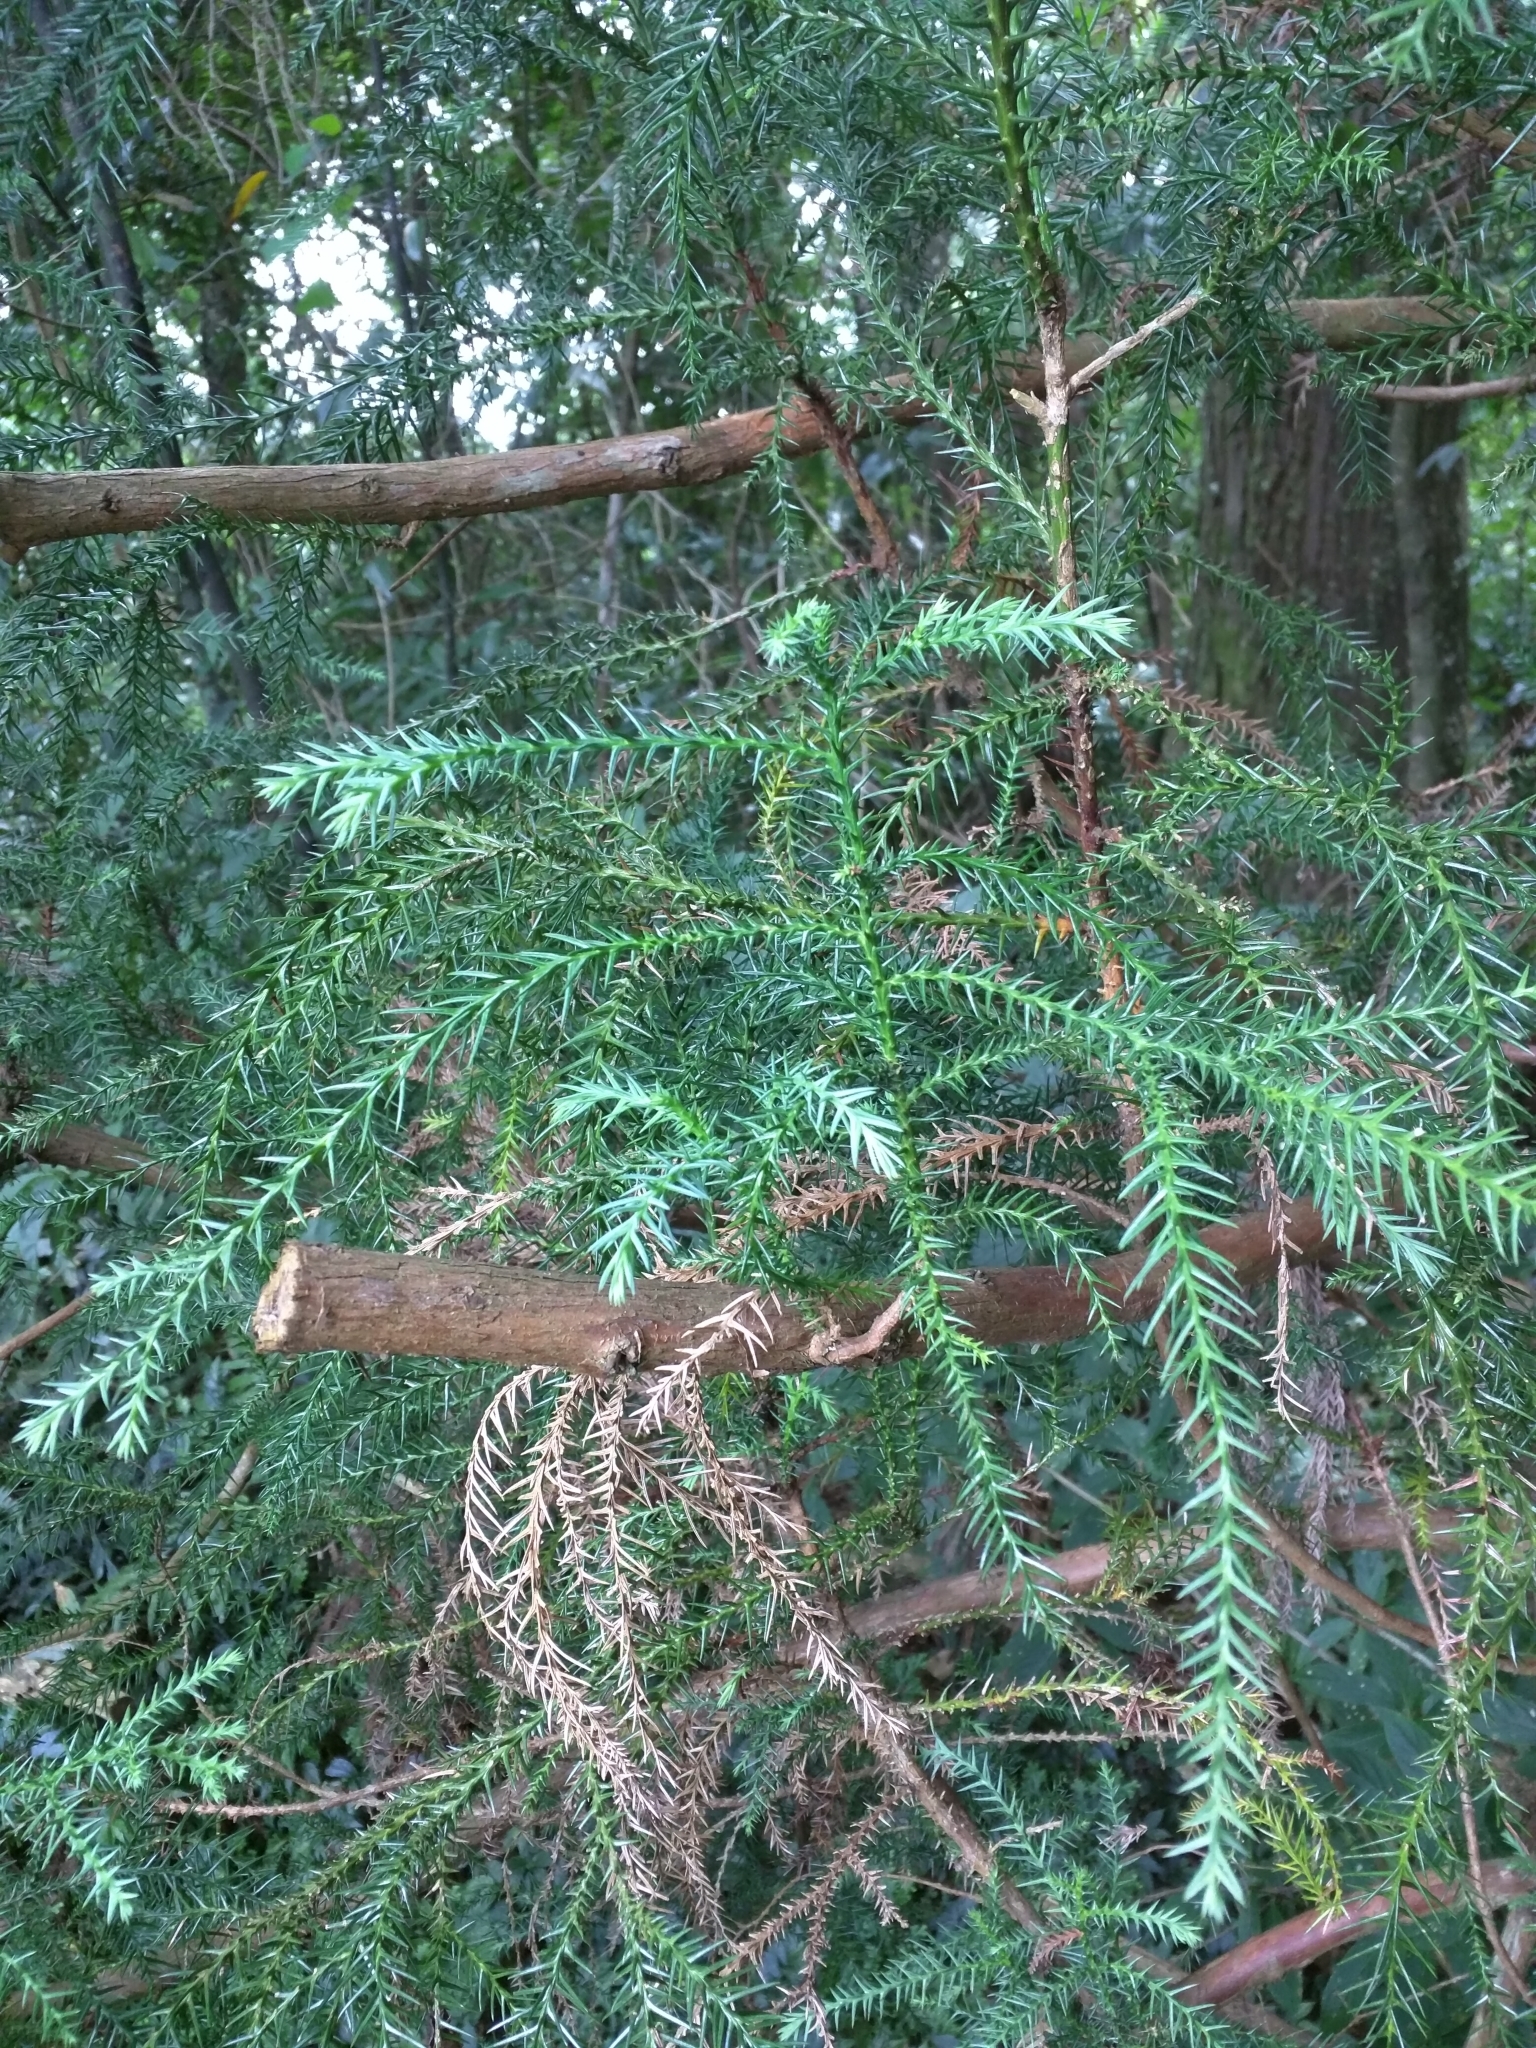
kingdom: Plantae
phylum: Tracheophyta
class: Pinopsida
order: Pinales
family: Cupressaceae
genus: Cryptomeria
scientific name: Cryptomeria japonica
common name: Japanese cedar
